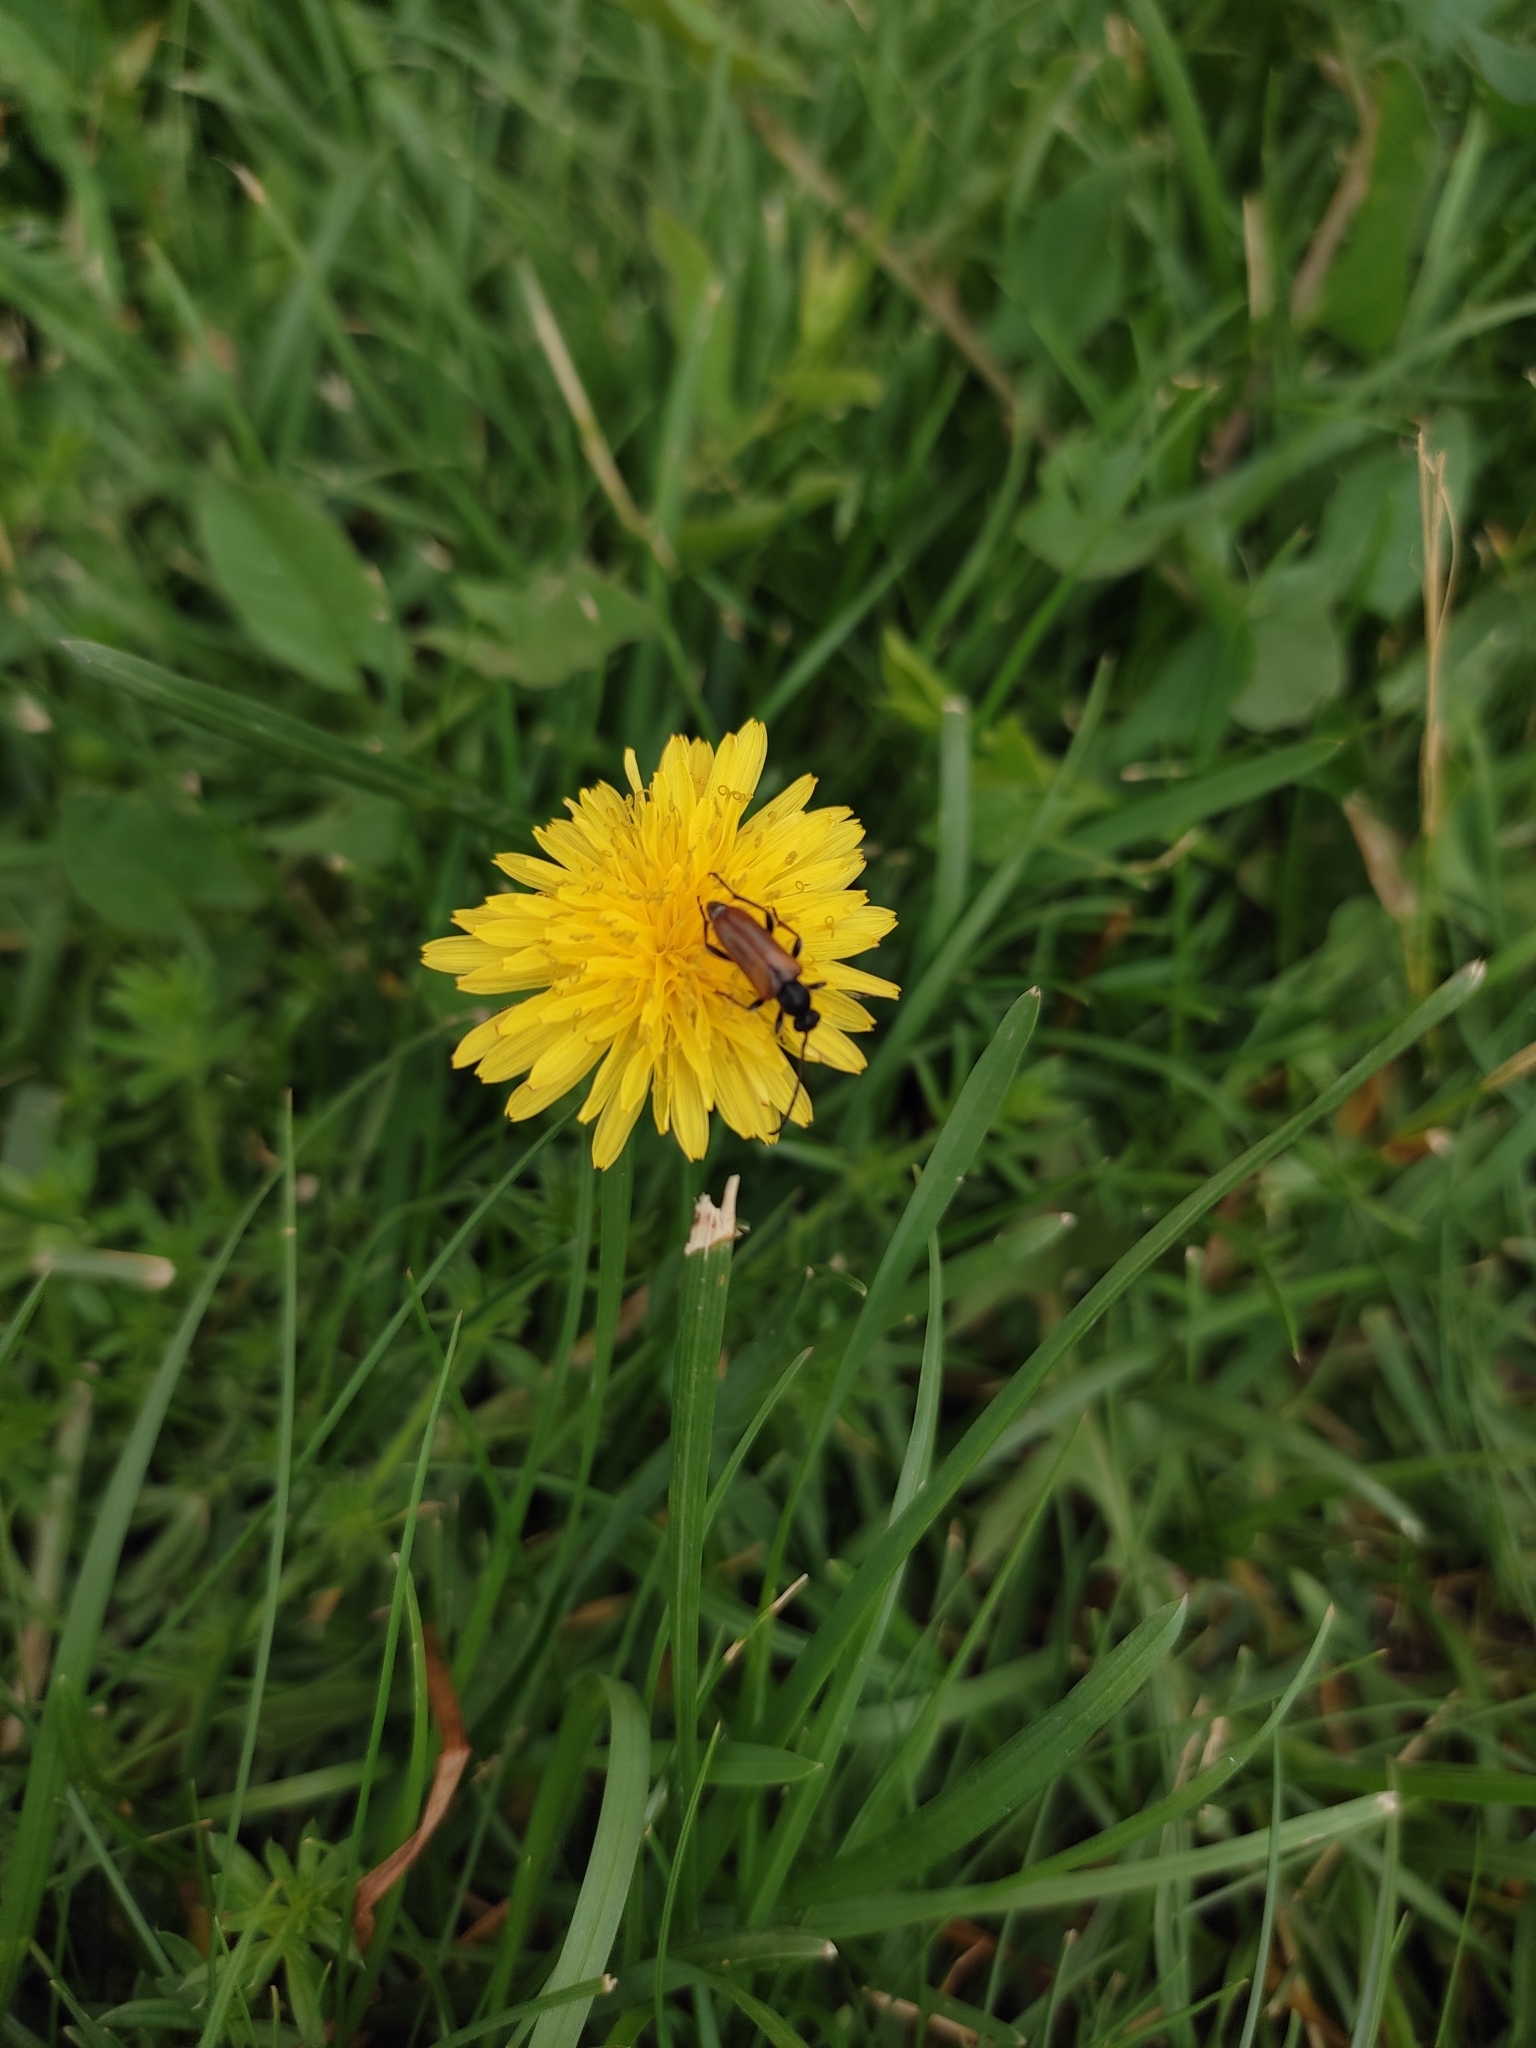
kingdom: Animalia
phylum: Arthropoda
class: Insecta
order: Coleoptera
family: Cerambycidae
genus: Pseudovadonia
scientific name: Pseudovadonia livida
